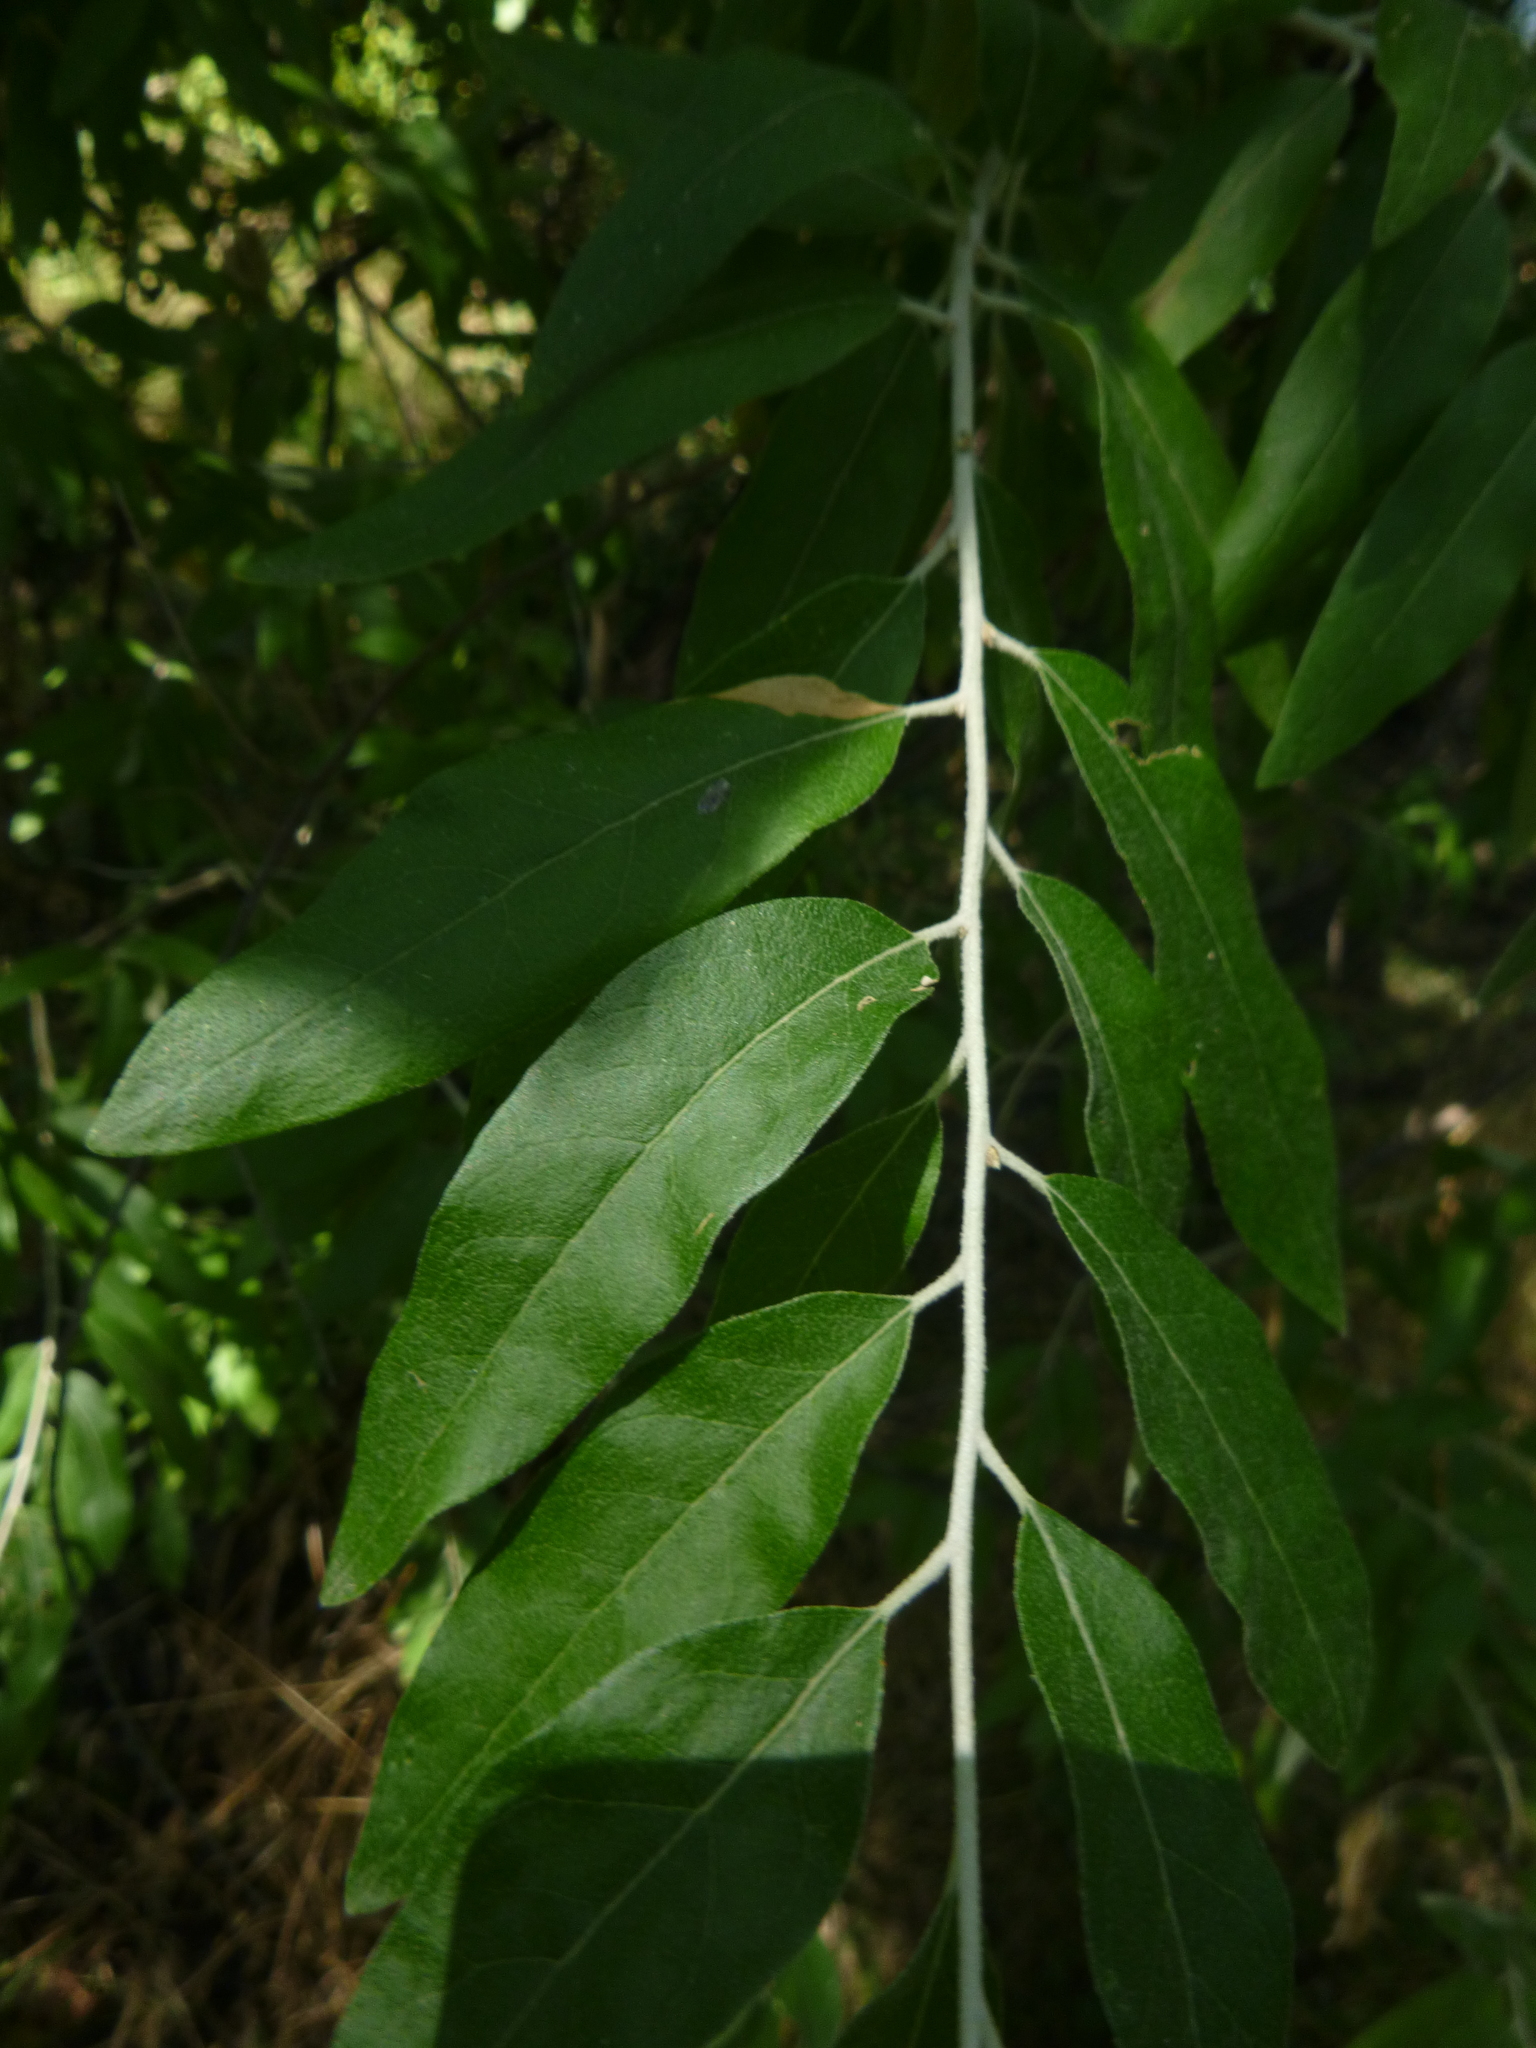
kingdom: Plantae
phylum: Tracheophyta
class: Magnoliopsida
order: Rosales
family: Elaeagnaceae
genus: Elaeagnus
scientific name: Elaeagnus angustifolia
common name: Russian olive
